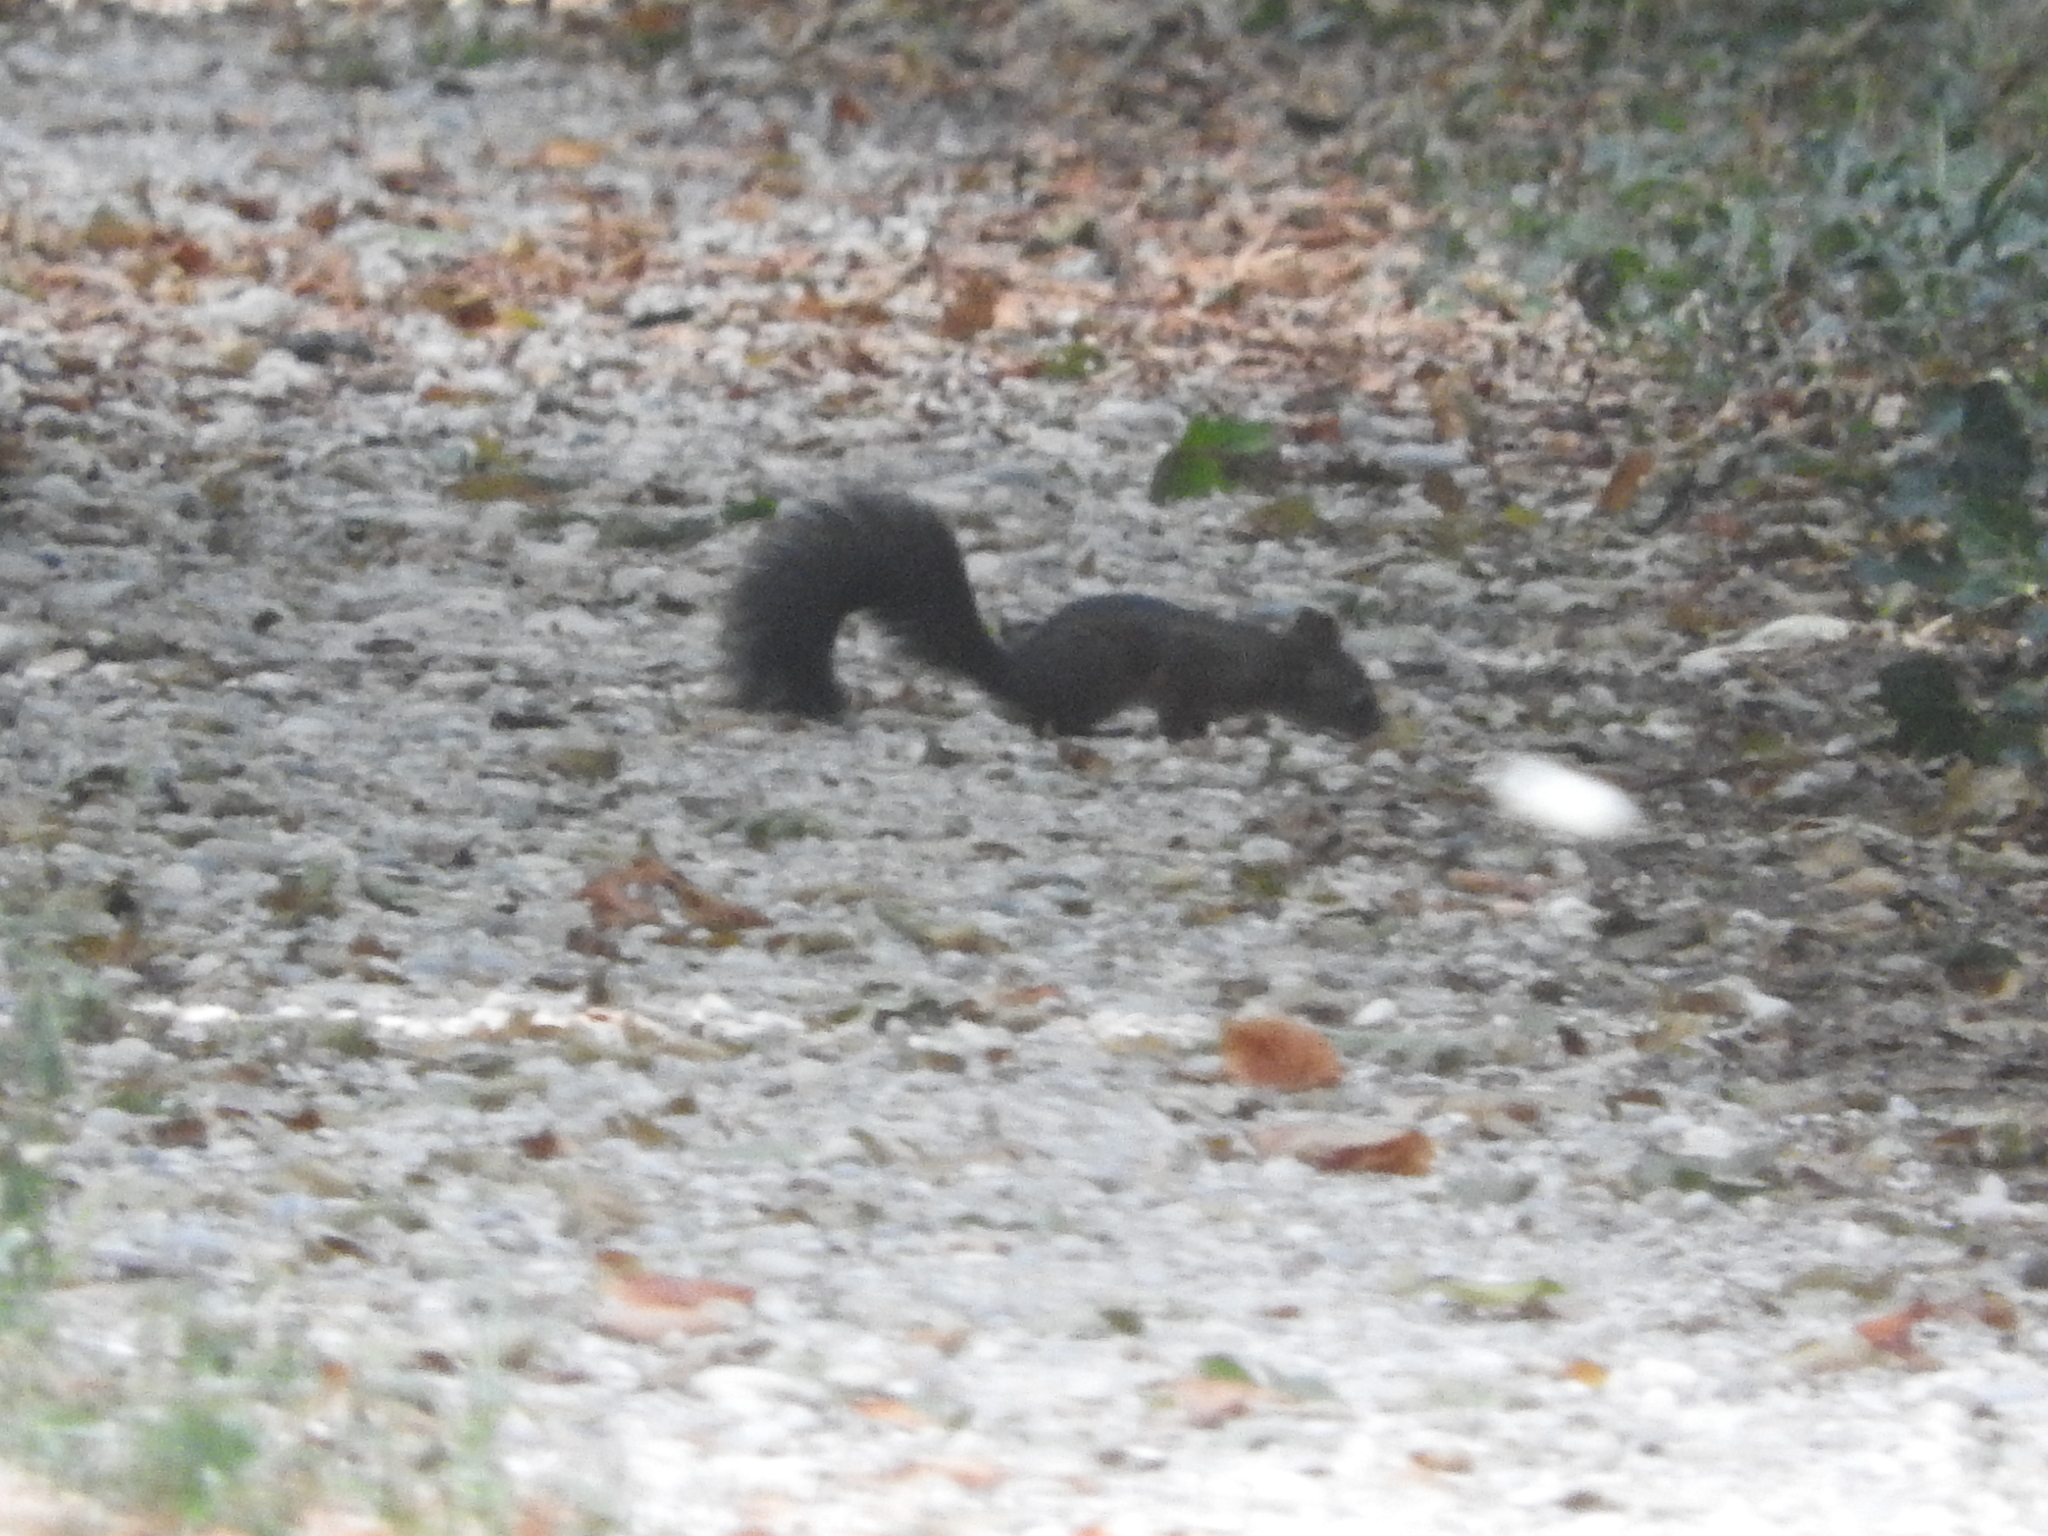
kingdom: Animalia
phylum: Chordata
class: Mammalia
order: Rodentia
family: Sciuridae
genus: Sciurus
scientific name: Sciurus vulgaris
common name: Eurasian red squirrel
